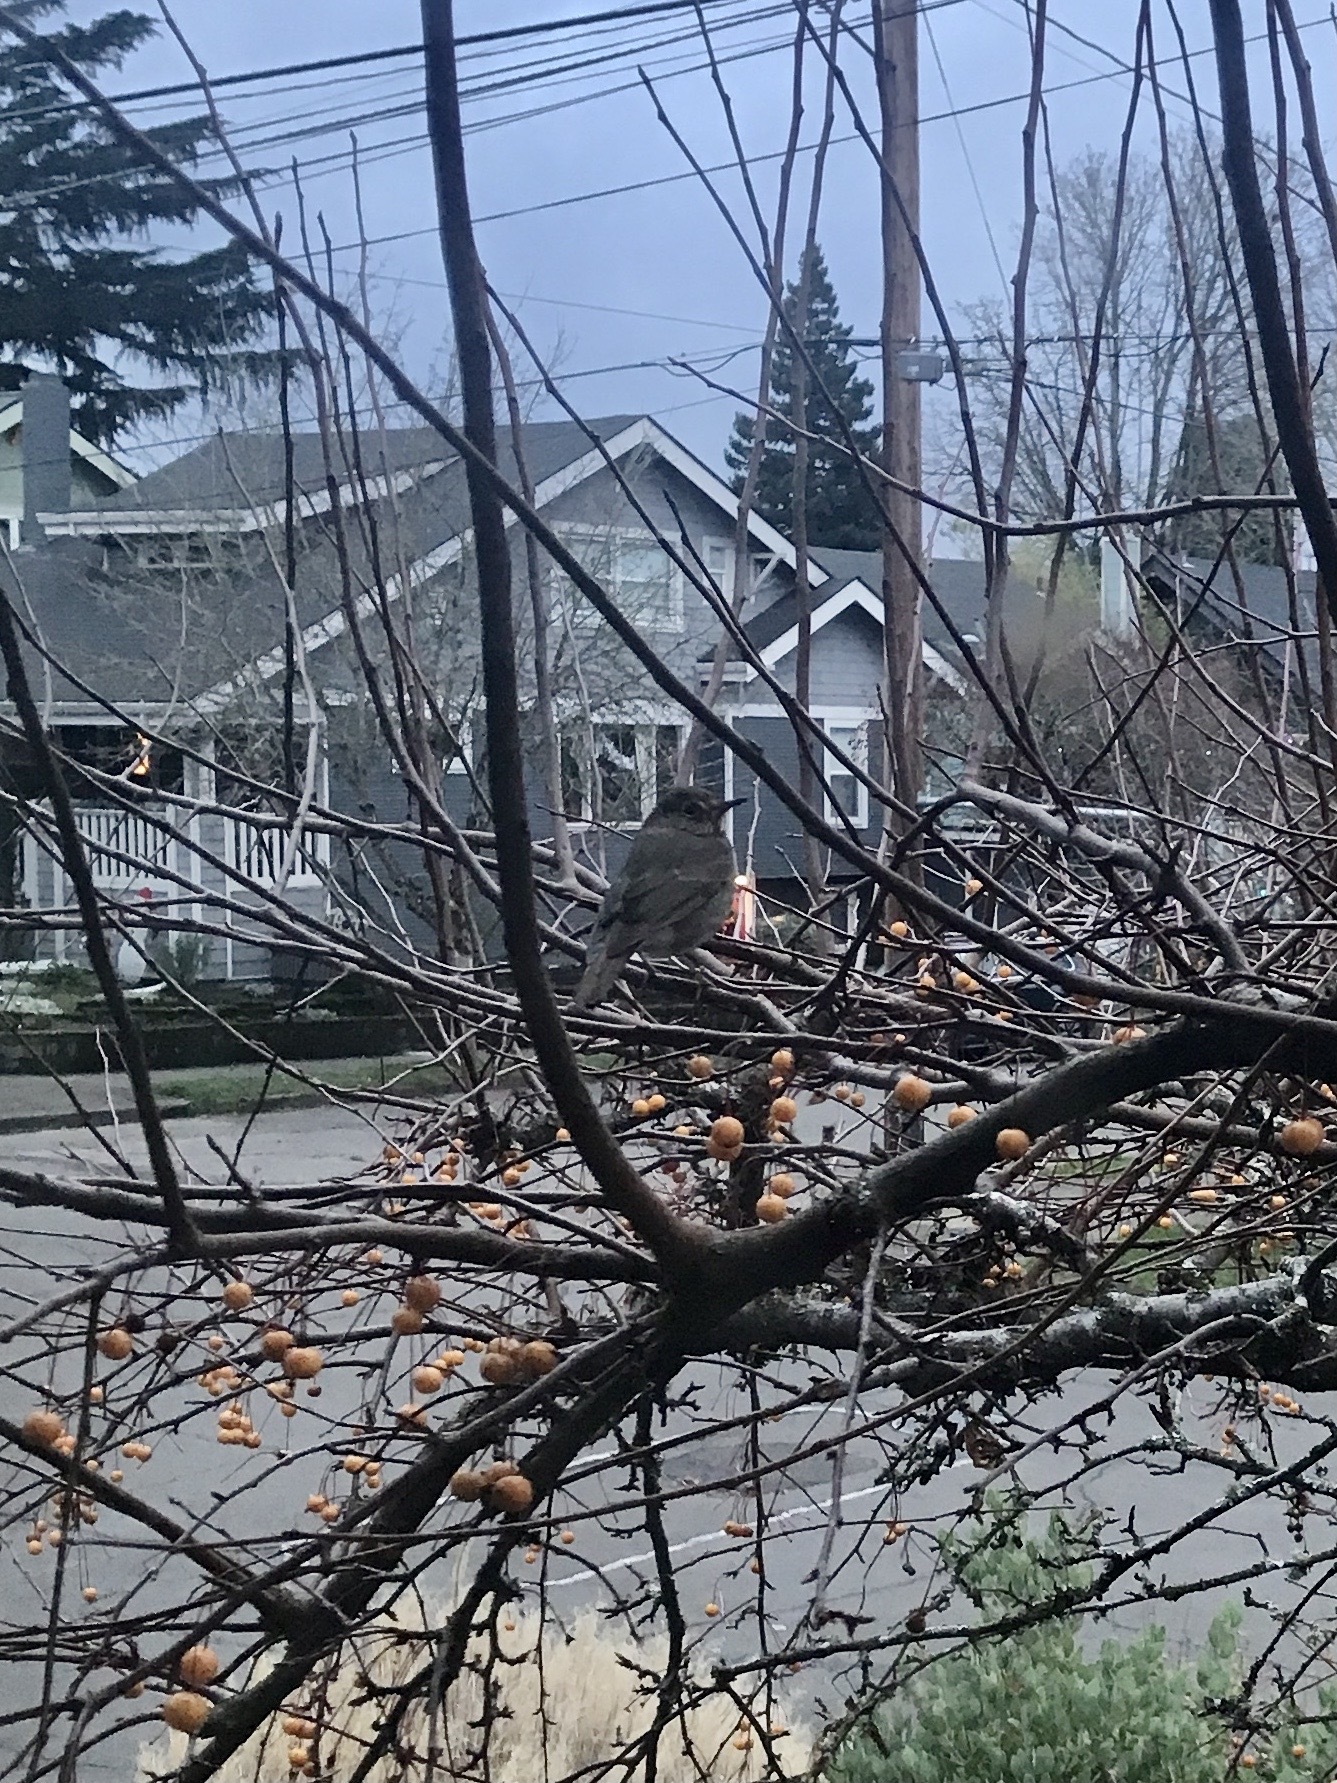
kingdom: Animalia
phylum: Chordata
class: Aves
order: Passeriformes
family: Turdidae
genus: Catharus
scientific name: Catharus guttatus
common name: Hermit thrush
